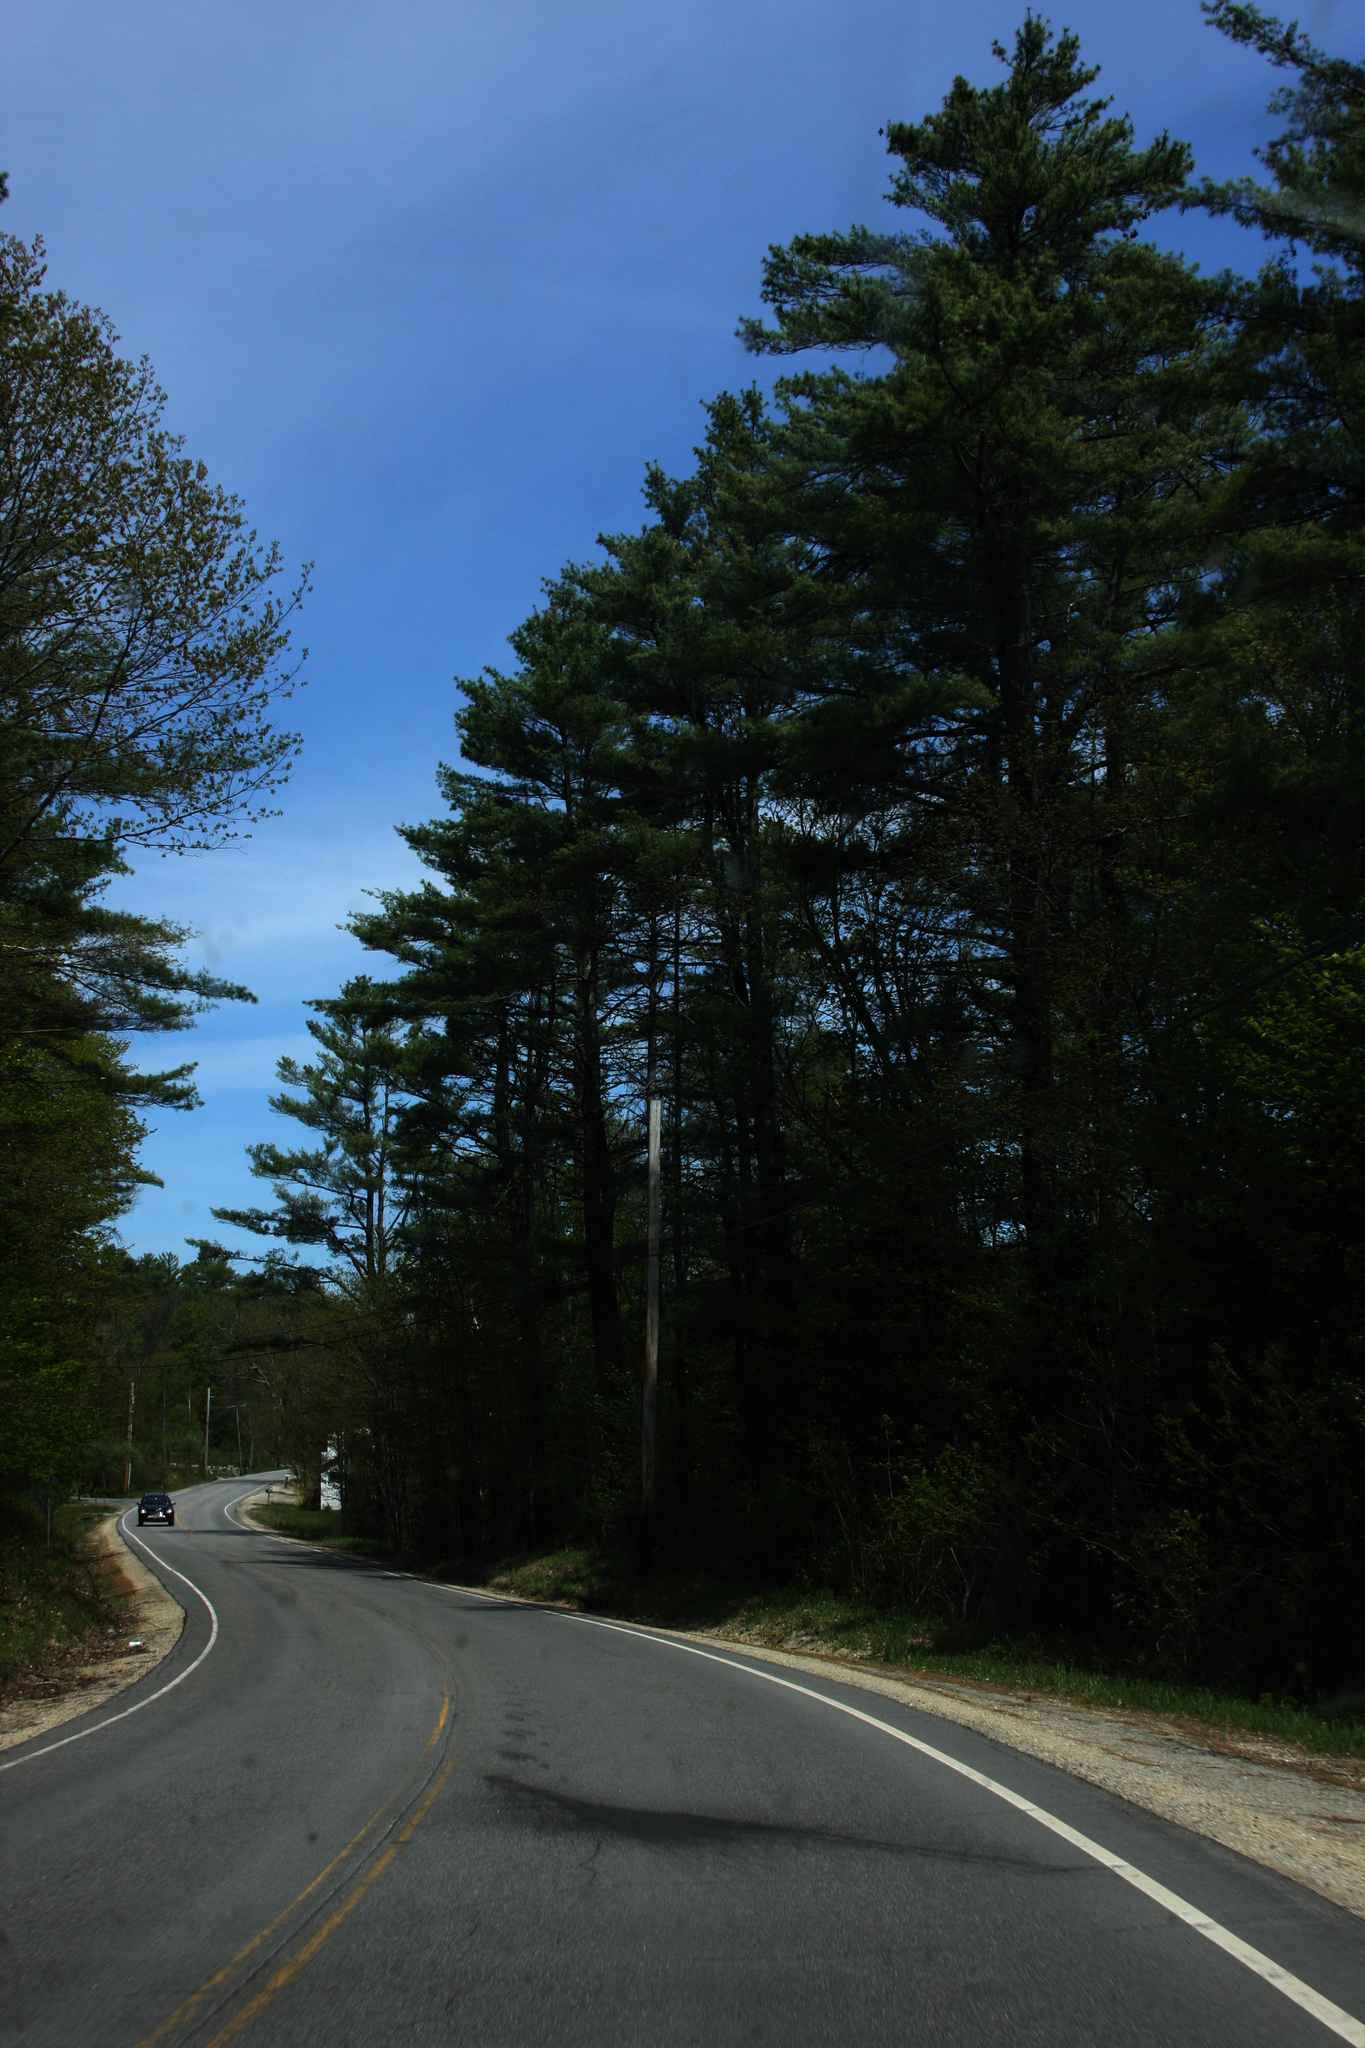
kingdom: Plantae
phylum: Tracheophyta
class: Pinopsida
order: Pinales
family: Pinaceae
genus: Pinus
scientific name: Pinus strobus
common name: Weymouth pine
